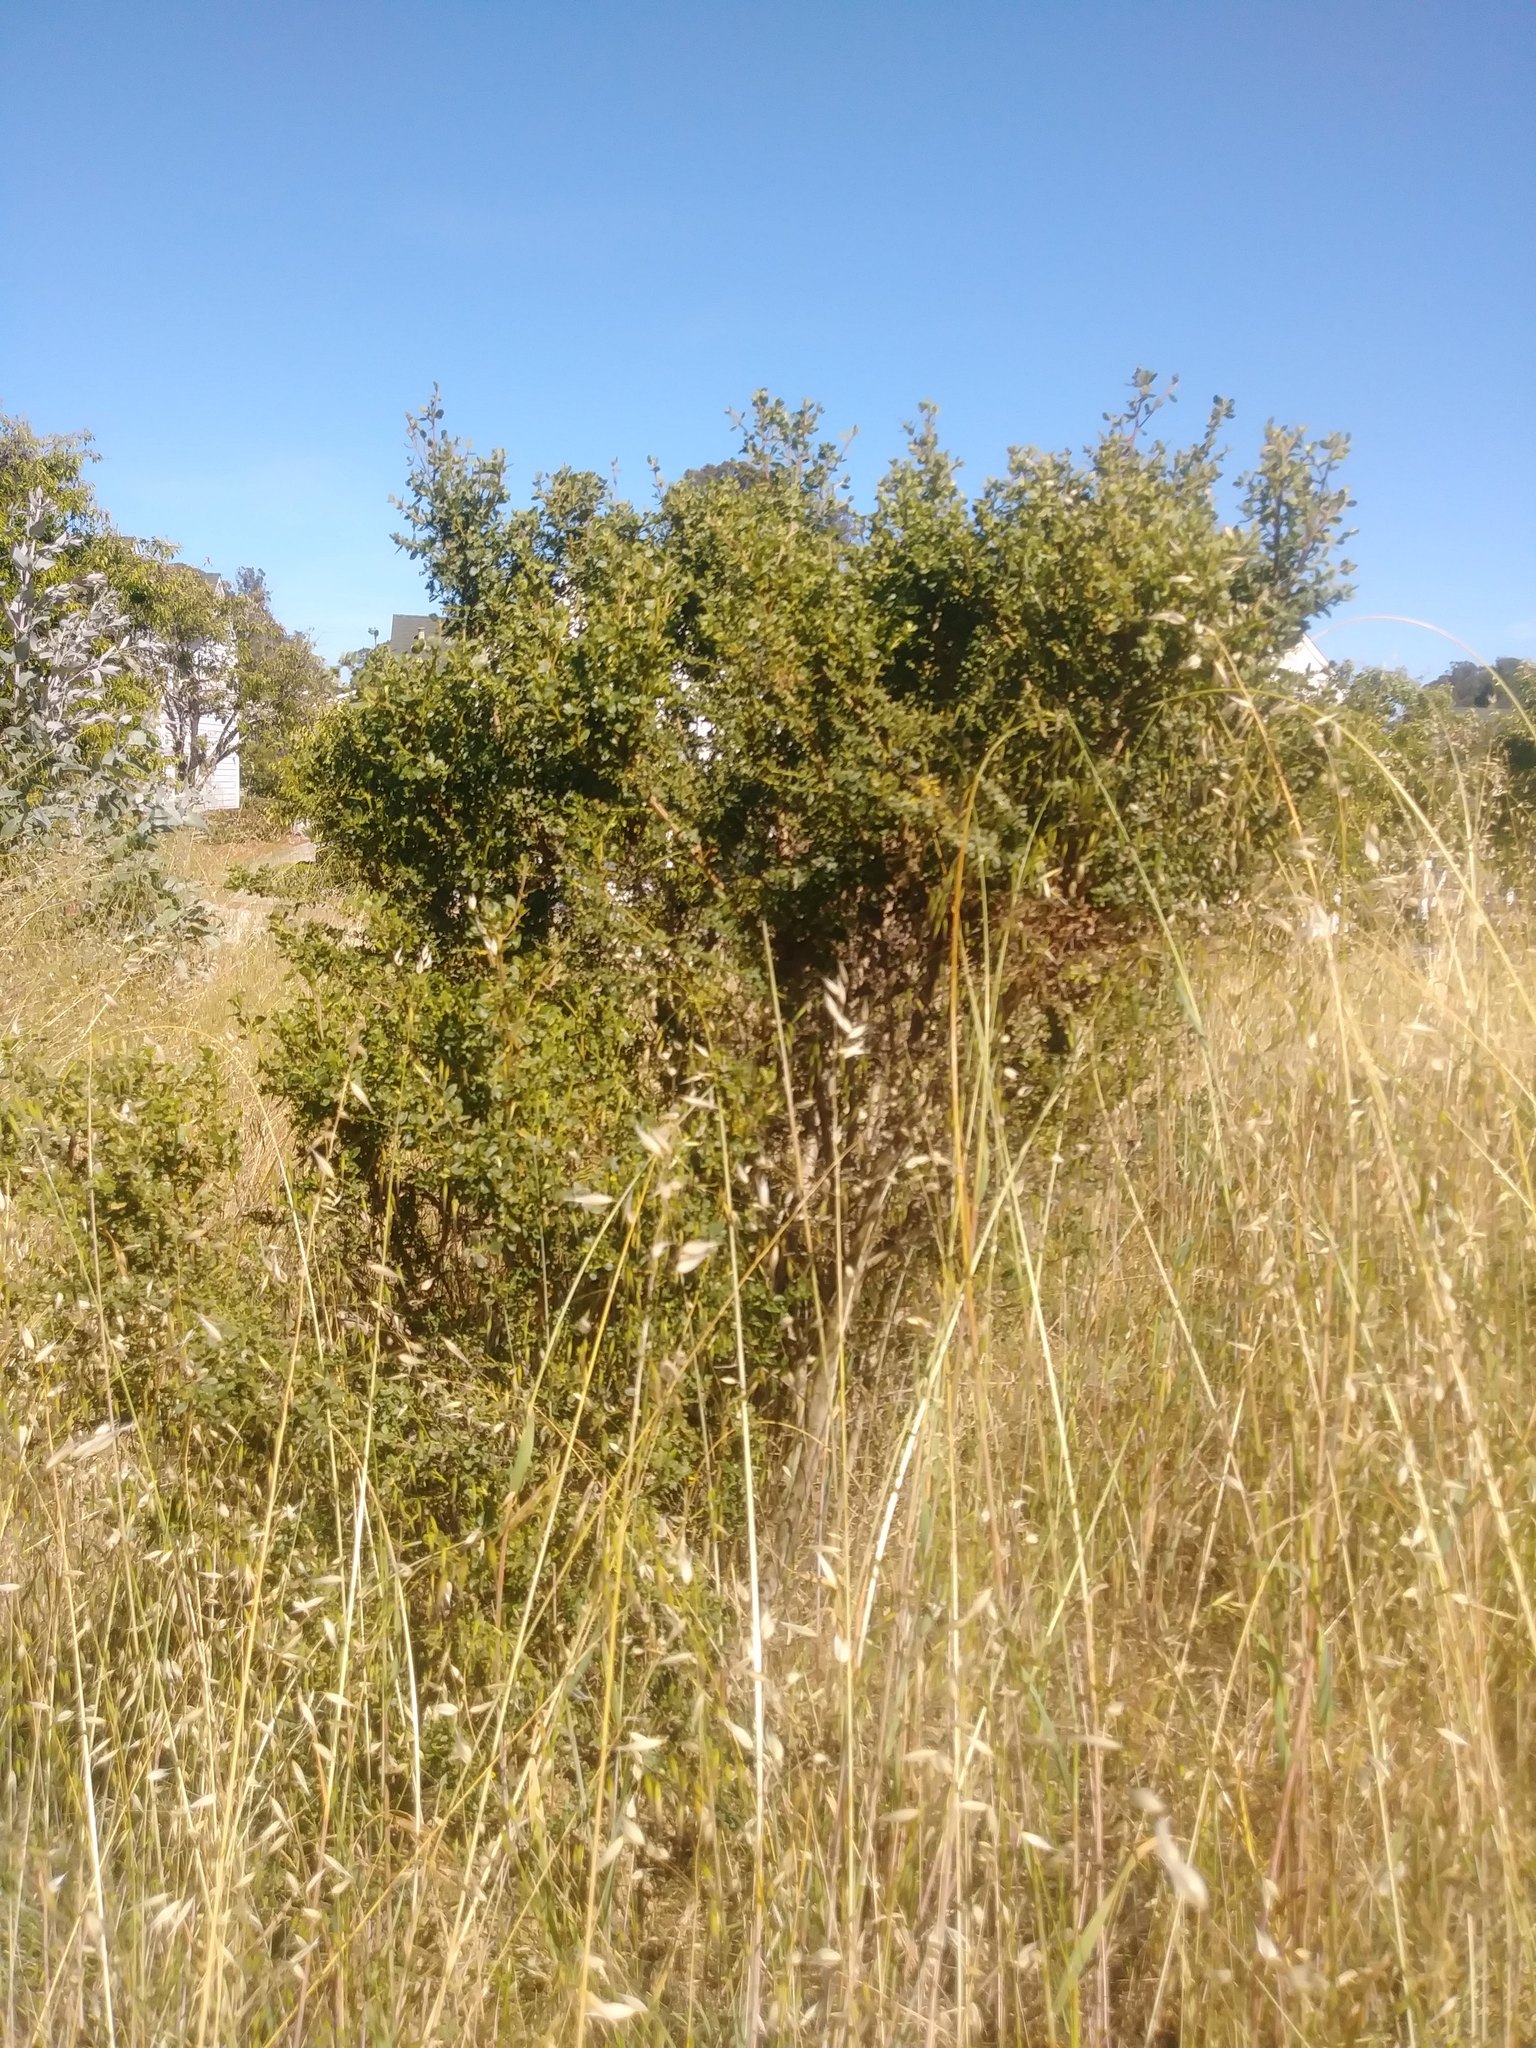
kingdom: Plantae
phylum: Tracheophyta
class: Magnoliopsida
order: Asterales
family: Asteraceae
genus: Baccharis
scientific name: Baccharis pilularis
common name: Coyotebrush
